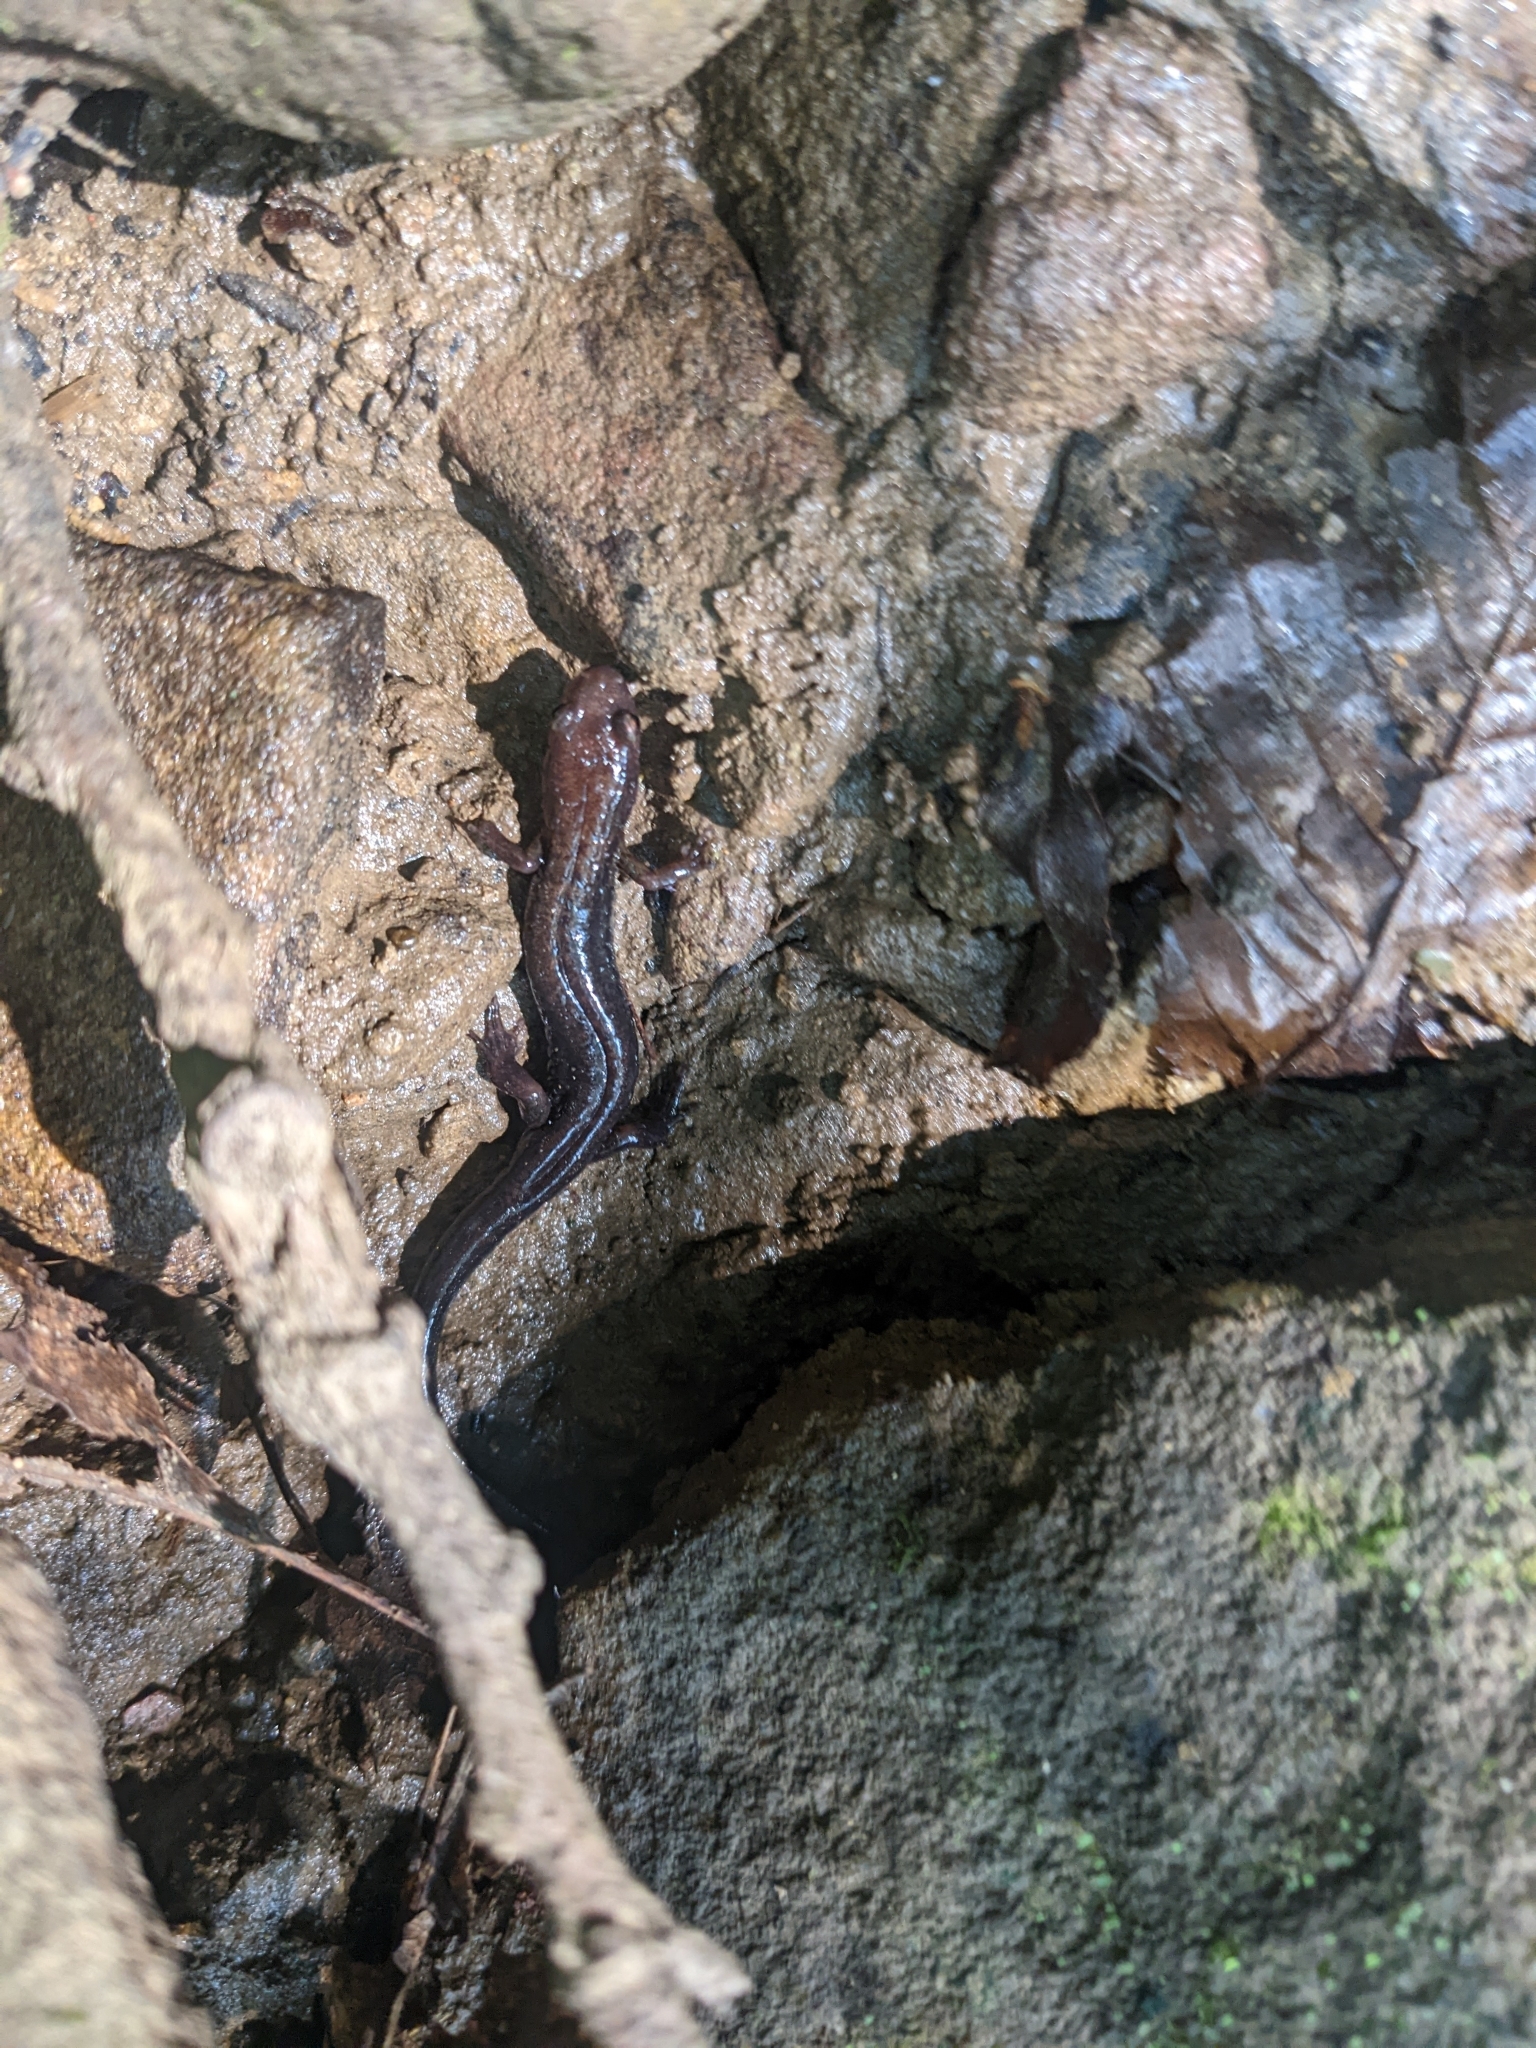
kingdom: Animalia
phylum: Chordata
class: Amphibia
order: Caudata
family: Plethodontidae
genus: Desmognathus
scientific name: Desmognathus ochrophaeus
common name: Allegheny mountain dusky salamander
